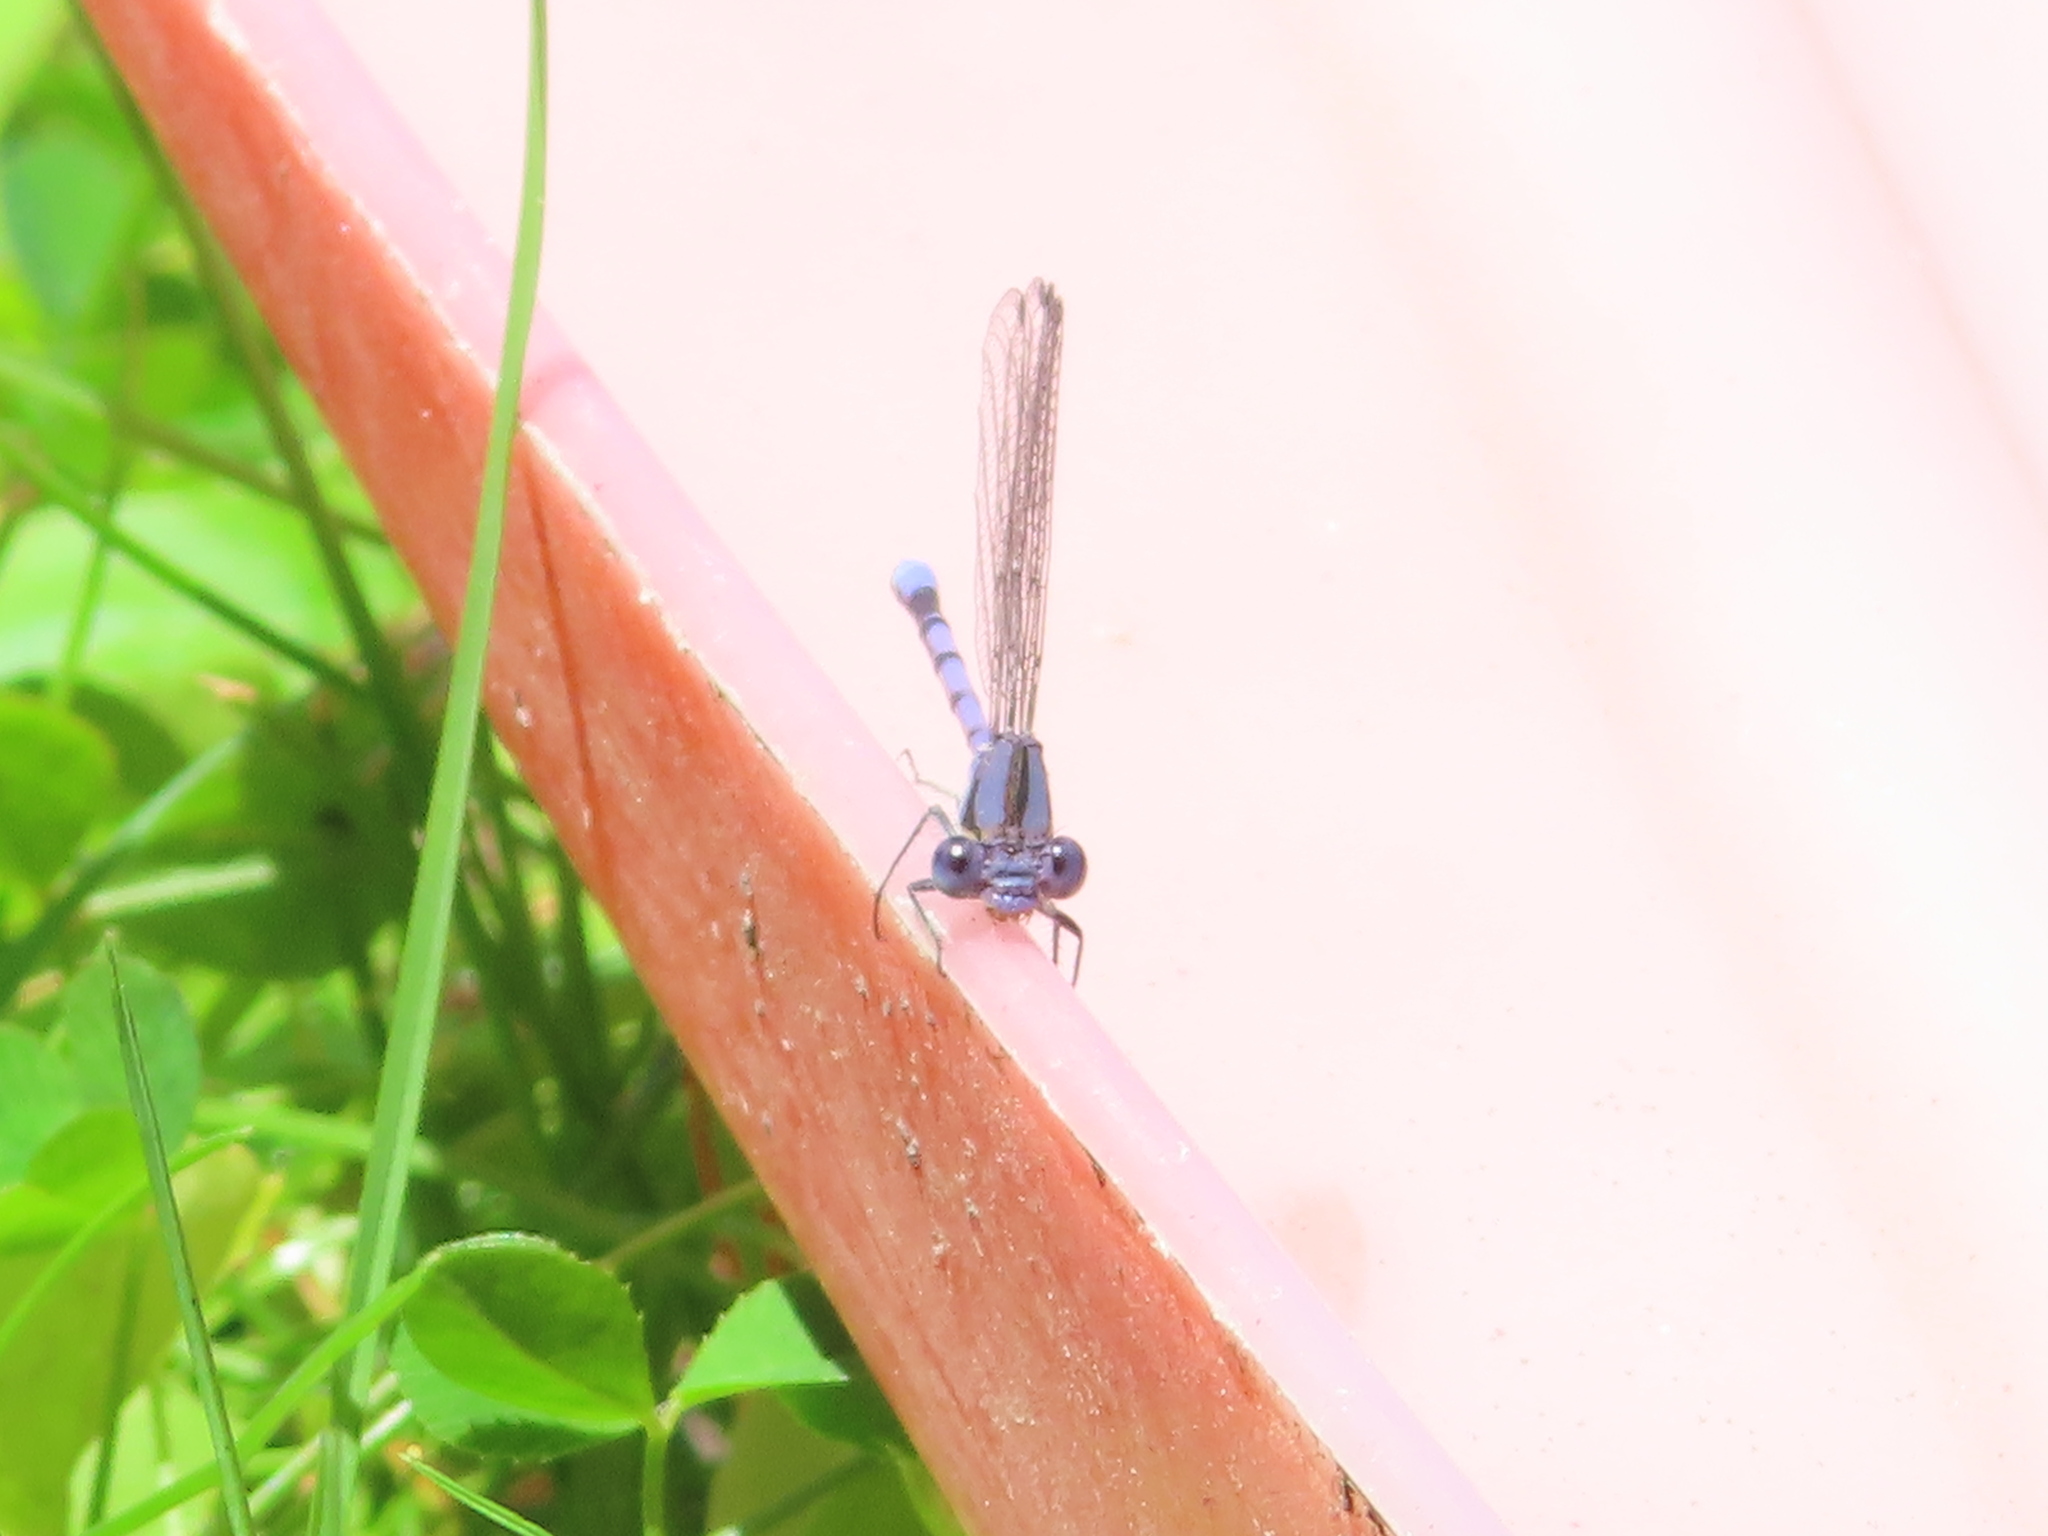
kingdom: Animalia
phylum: Arthropoda
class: Insecta
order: Odonata
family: Coenagrionidae
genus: Argia
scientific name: Argia fumipennis
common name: Variable dancer
